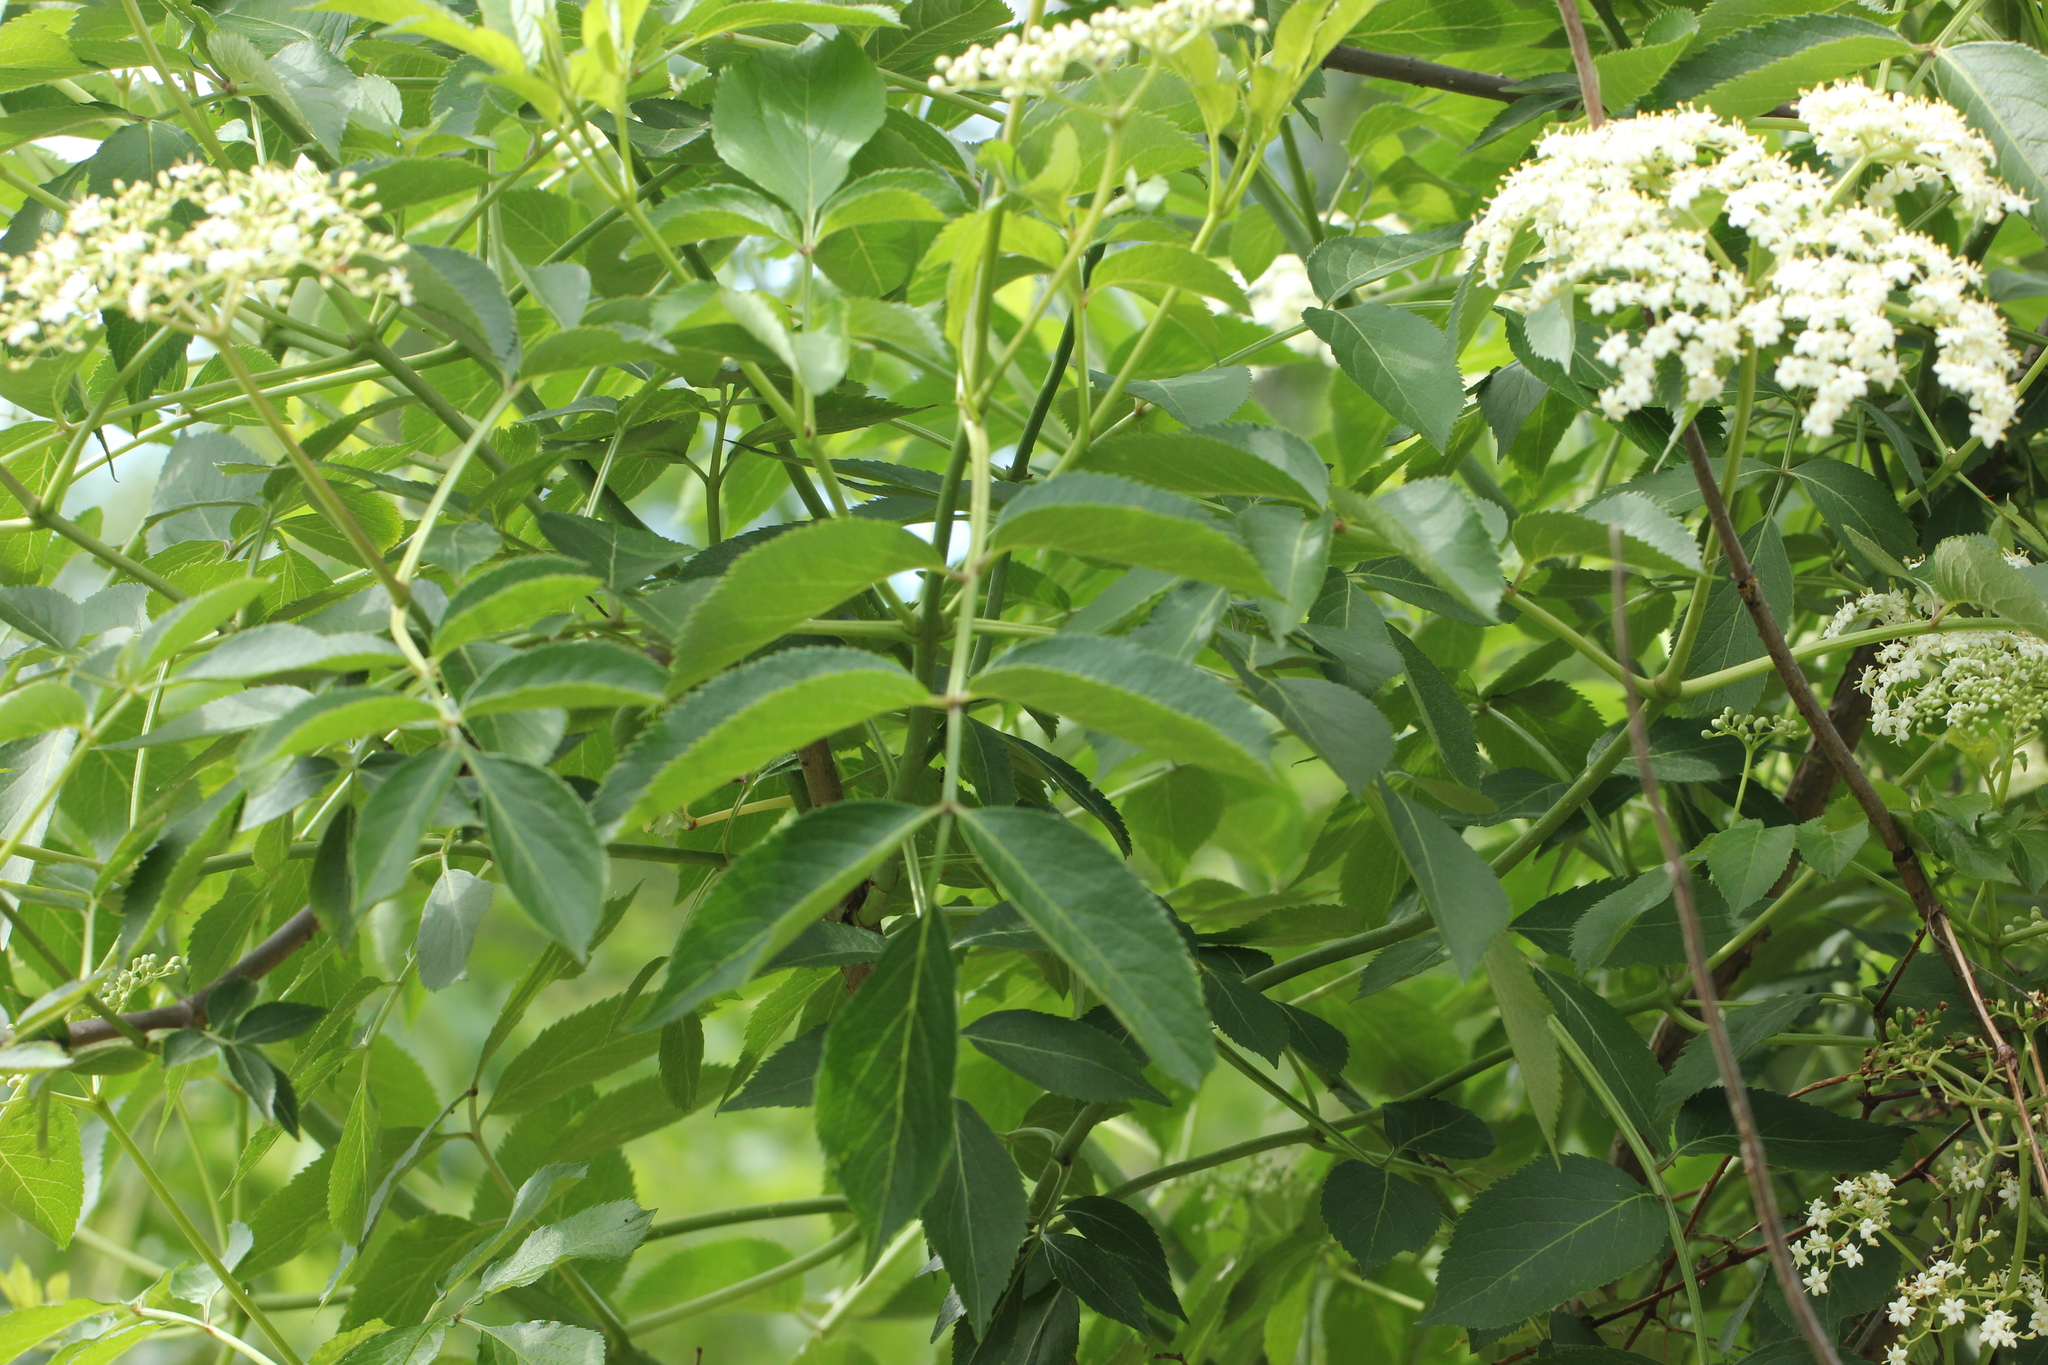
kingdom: Plantae
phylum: Tracheophyta
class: Magnoliopsida
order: Dipsacales
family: Viburnaceae
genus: Sambucus
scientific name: Sambucus canadensis
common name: American elder
